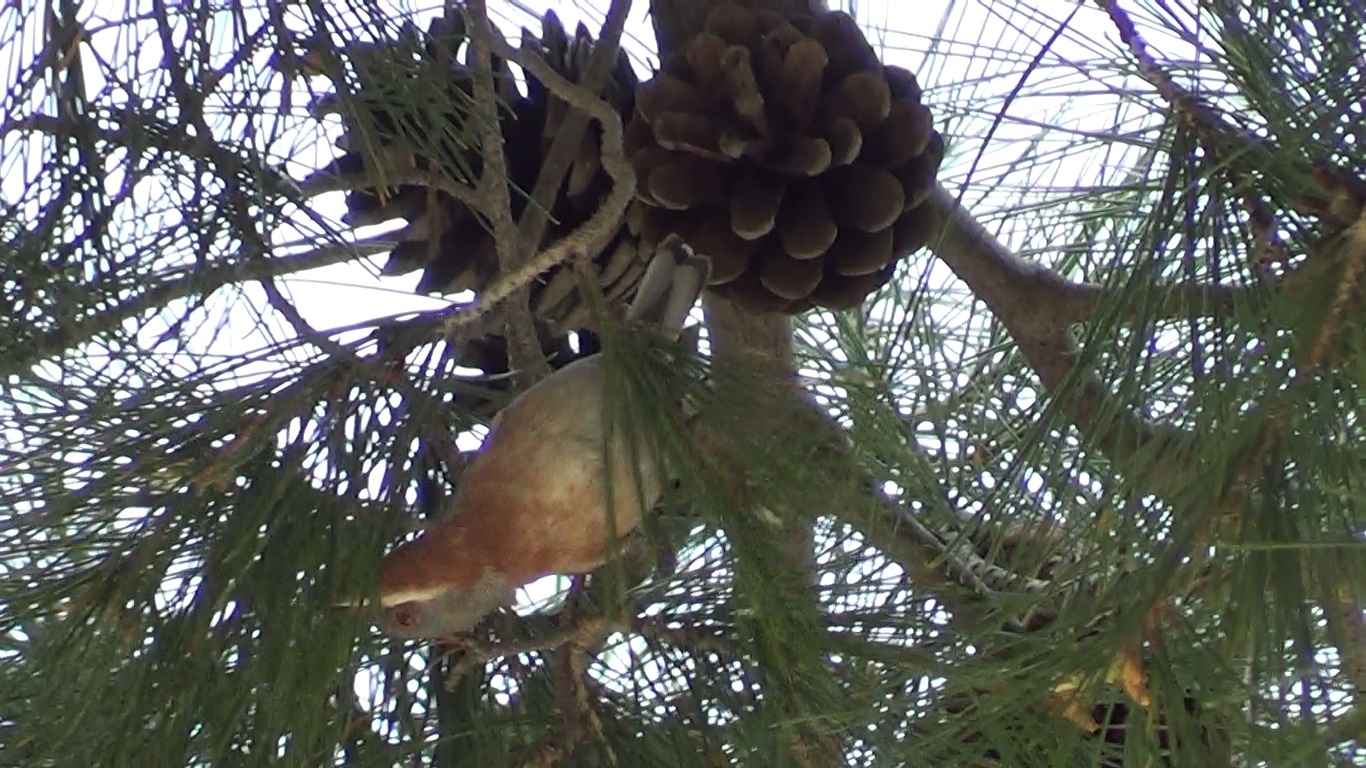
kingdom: Animalia
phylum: Chordata
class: Aves
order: Passeriformes
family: Sylviidae
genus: Curruca
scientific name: Curruca cantillans
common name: Subalpine warbler
